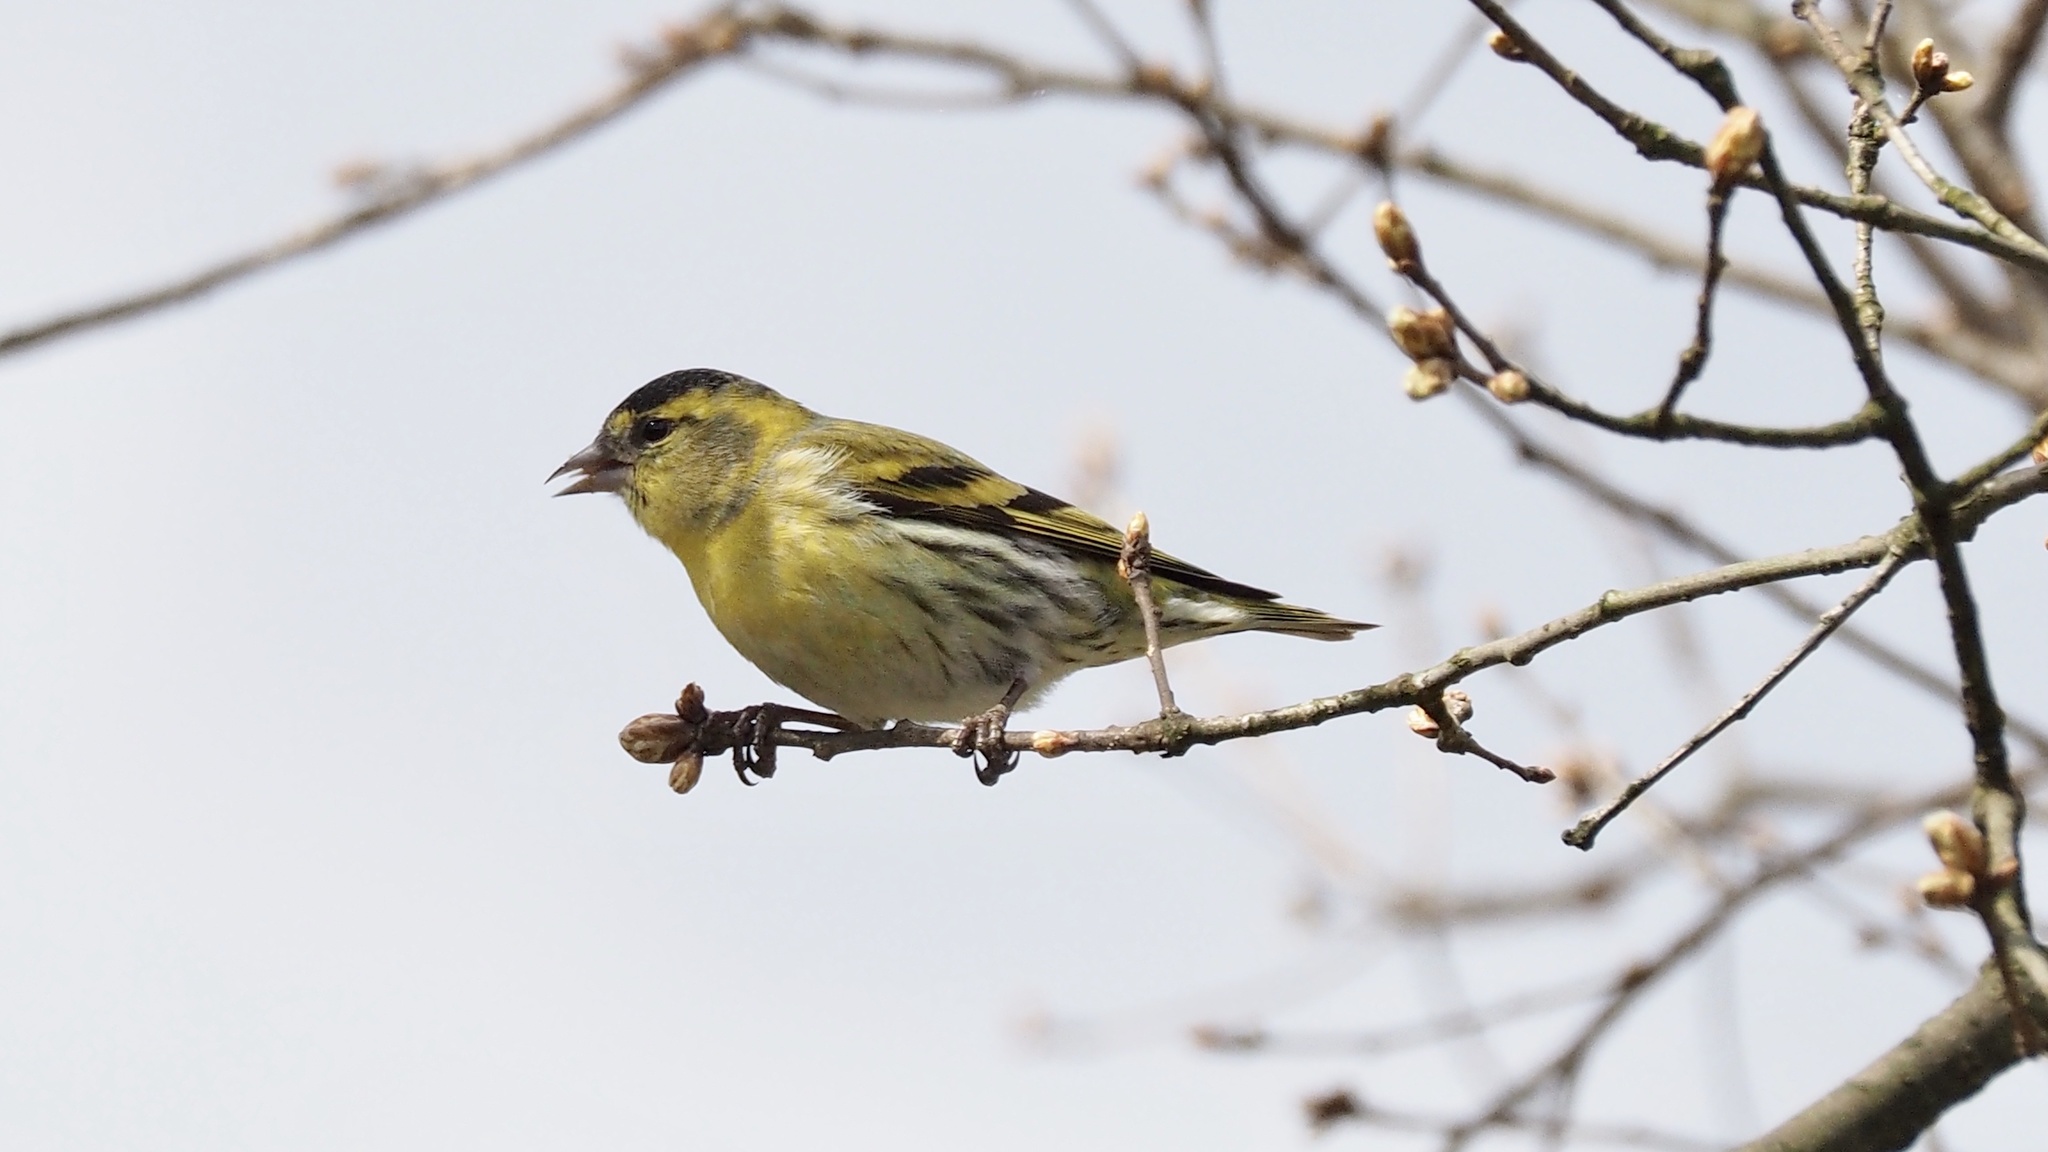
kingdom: Animalia
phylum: Chordata
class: Aves
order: Passeriformes
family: Fringillidae
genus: Spinus
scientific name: Spinus spinus
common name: Eurasian siskin
